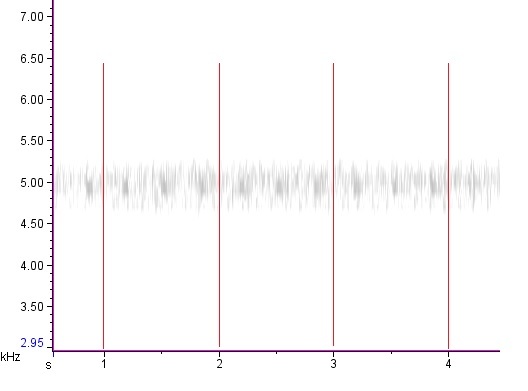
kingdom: Animalia
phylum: Arthropoda
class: Insecta
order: Orthoptera
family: Trigonidiidae
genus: Cyrtoxipha
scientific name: Cyrtoxipha columbiana
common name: Columbian trig
